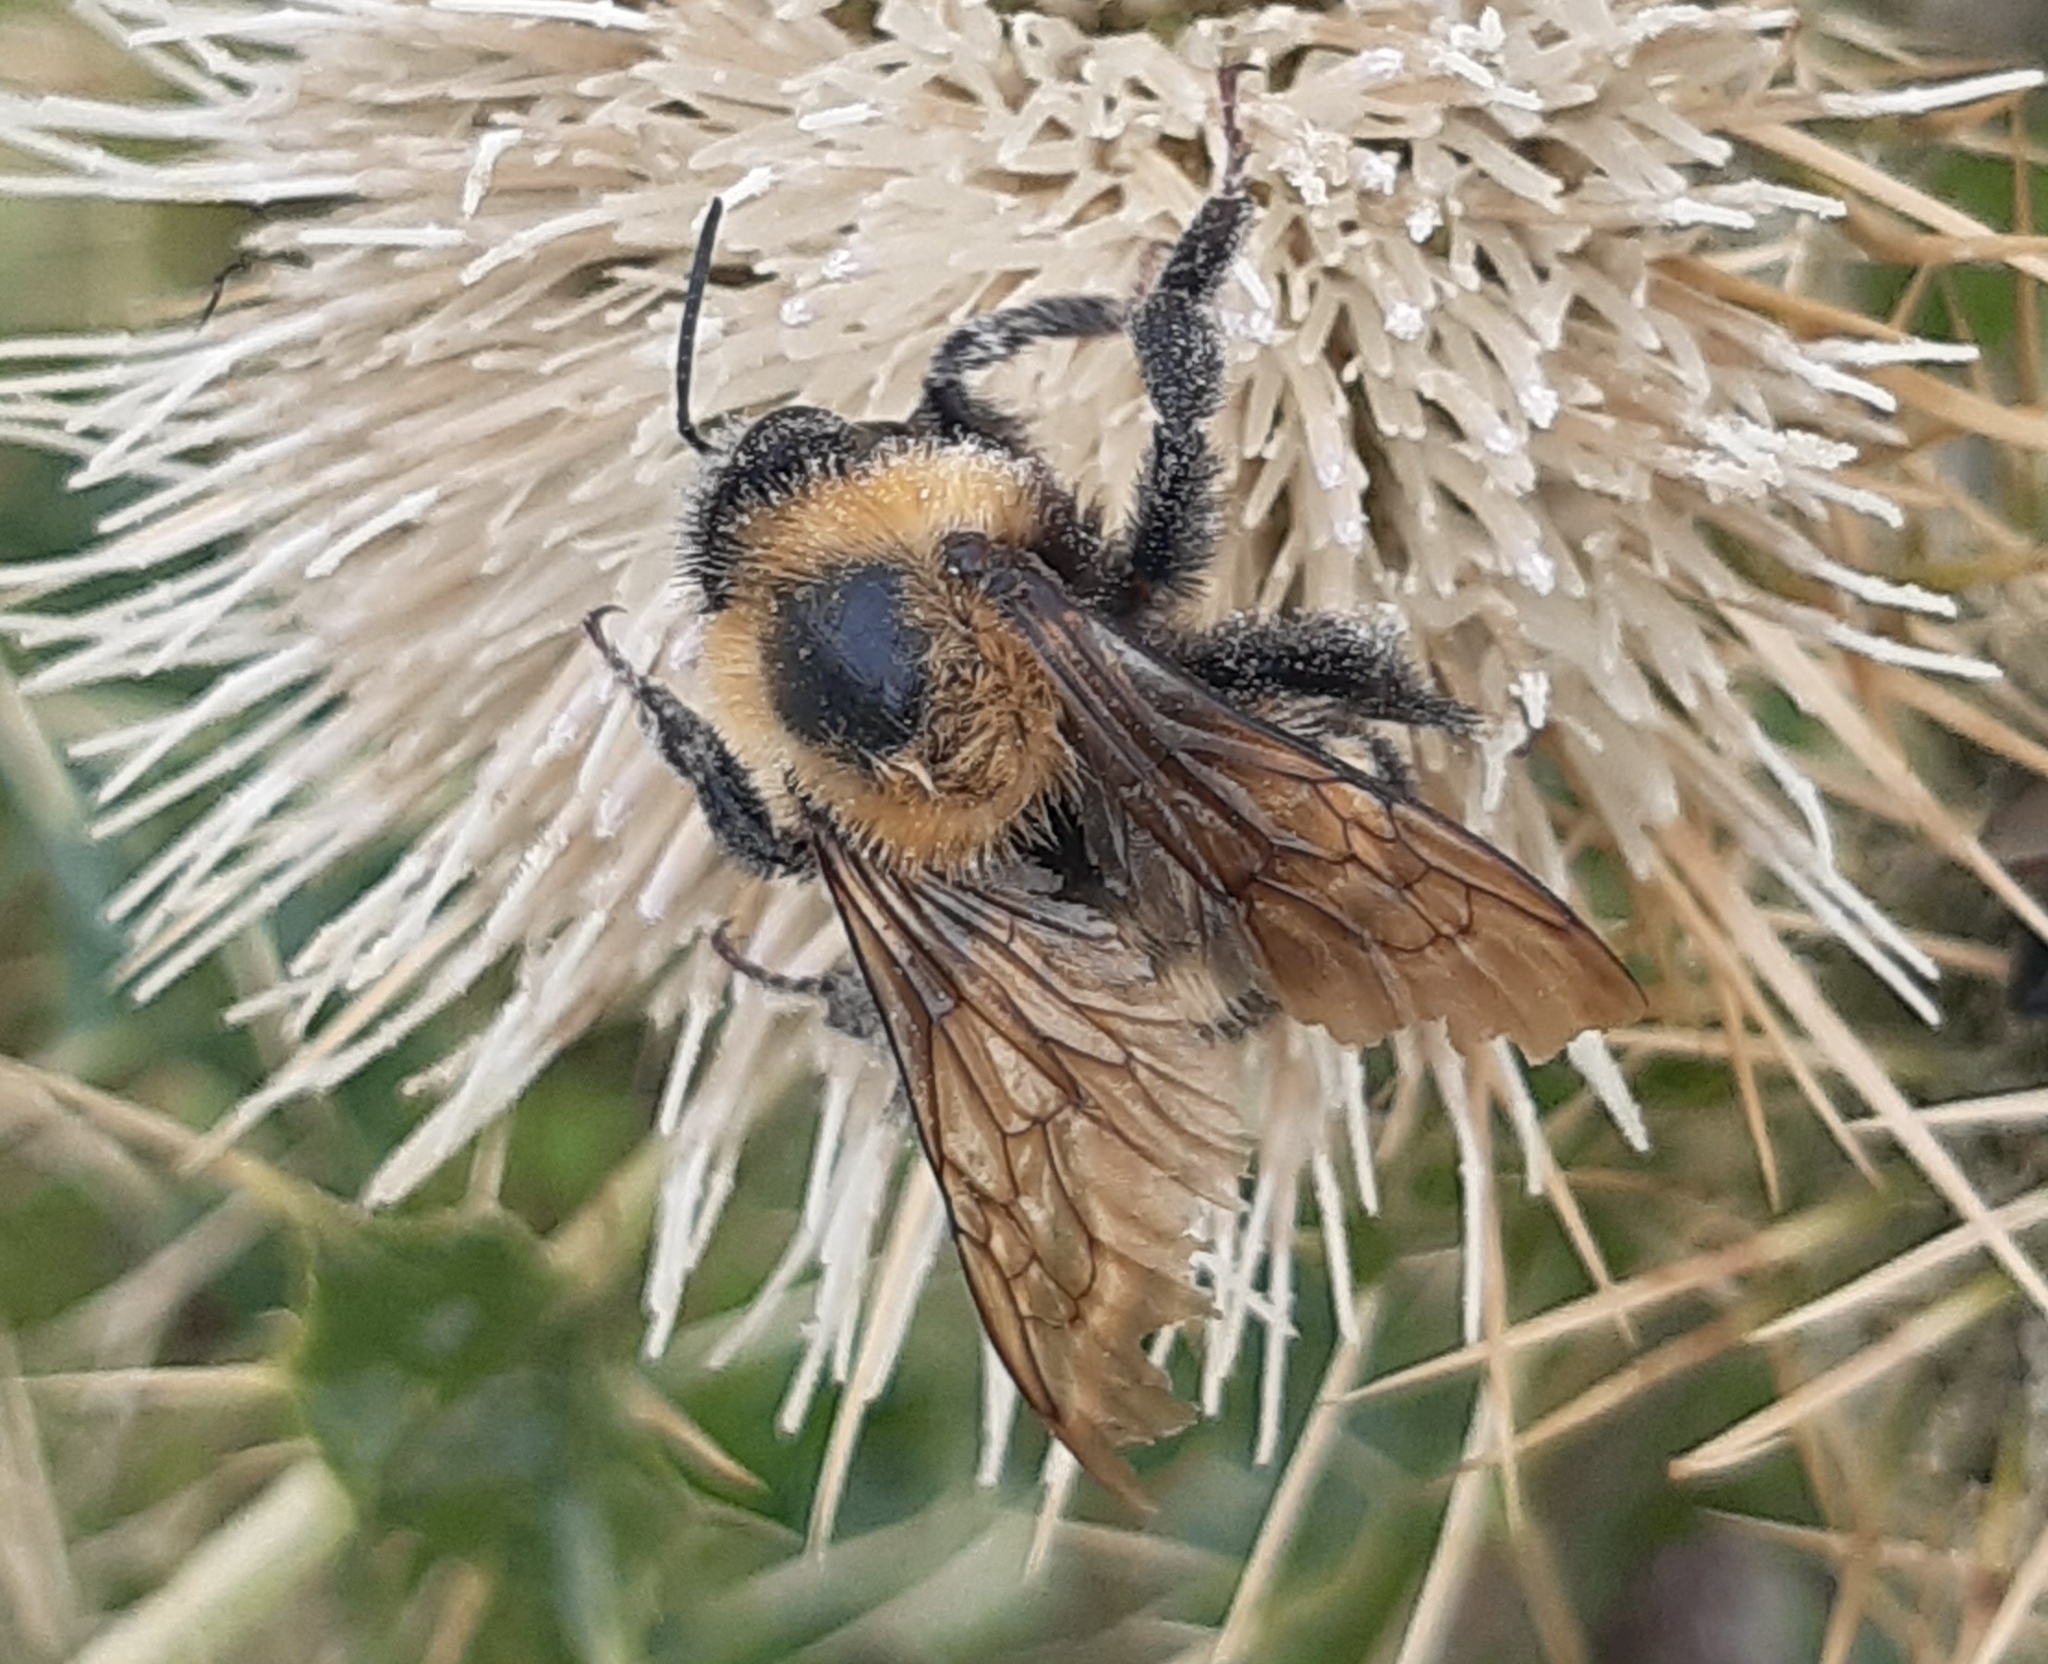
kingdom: Animalia
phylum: Arthropoda
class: Insecta
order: Hymenoptera
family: Apidae
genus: Bombus
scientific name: Bombus
